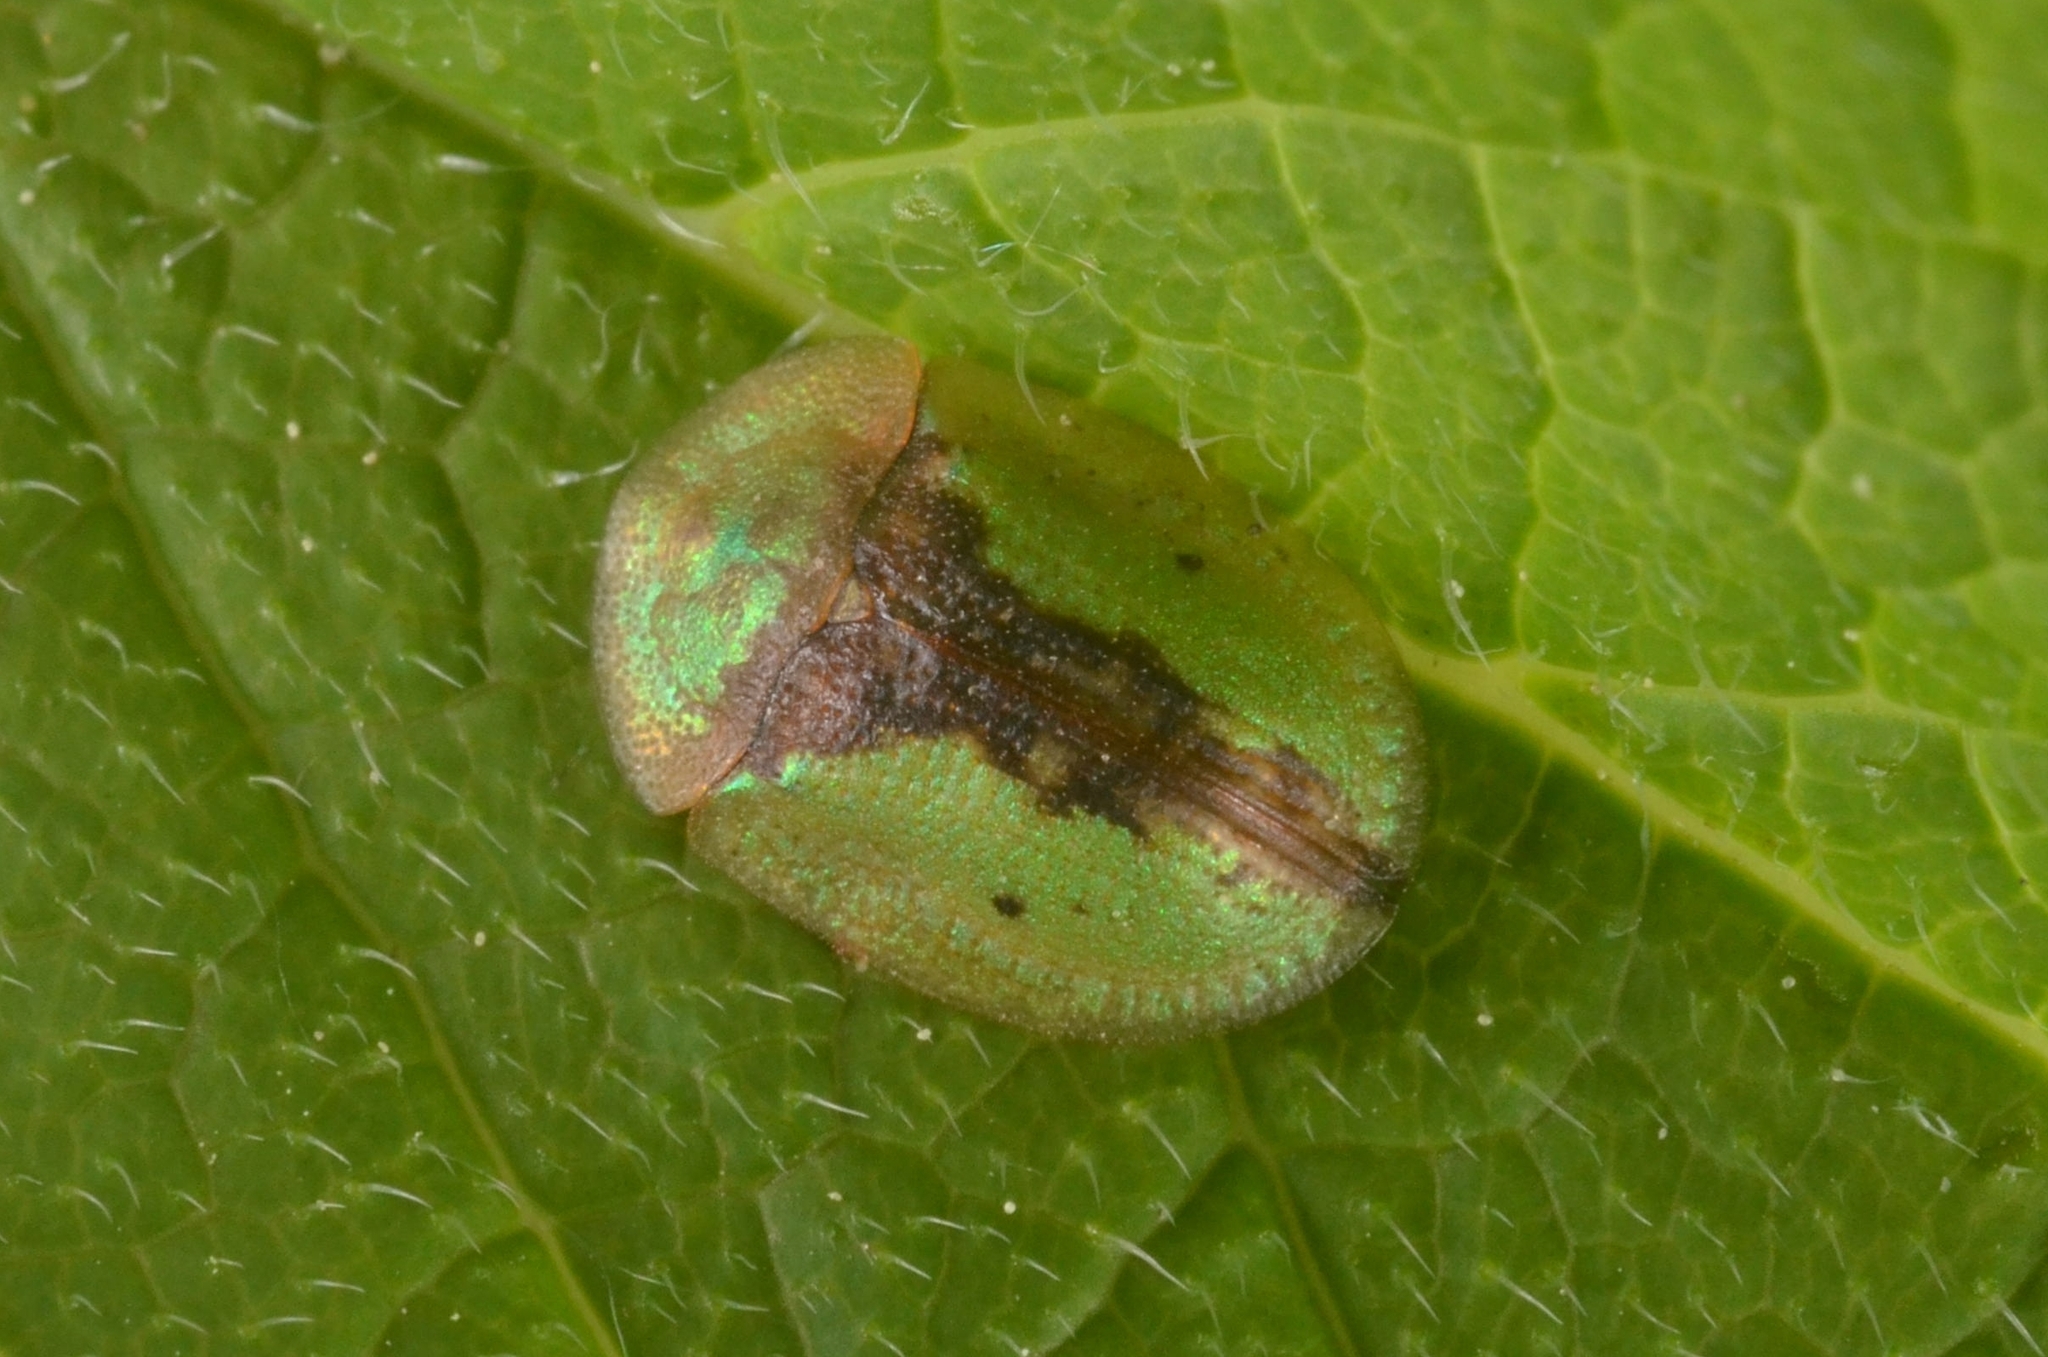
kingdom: Animalia
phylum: Arthropoda
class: Insecta
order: Coleoptera
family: Chrysomelidae
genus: Cassida
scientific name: Cassida vibex
